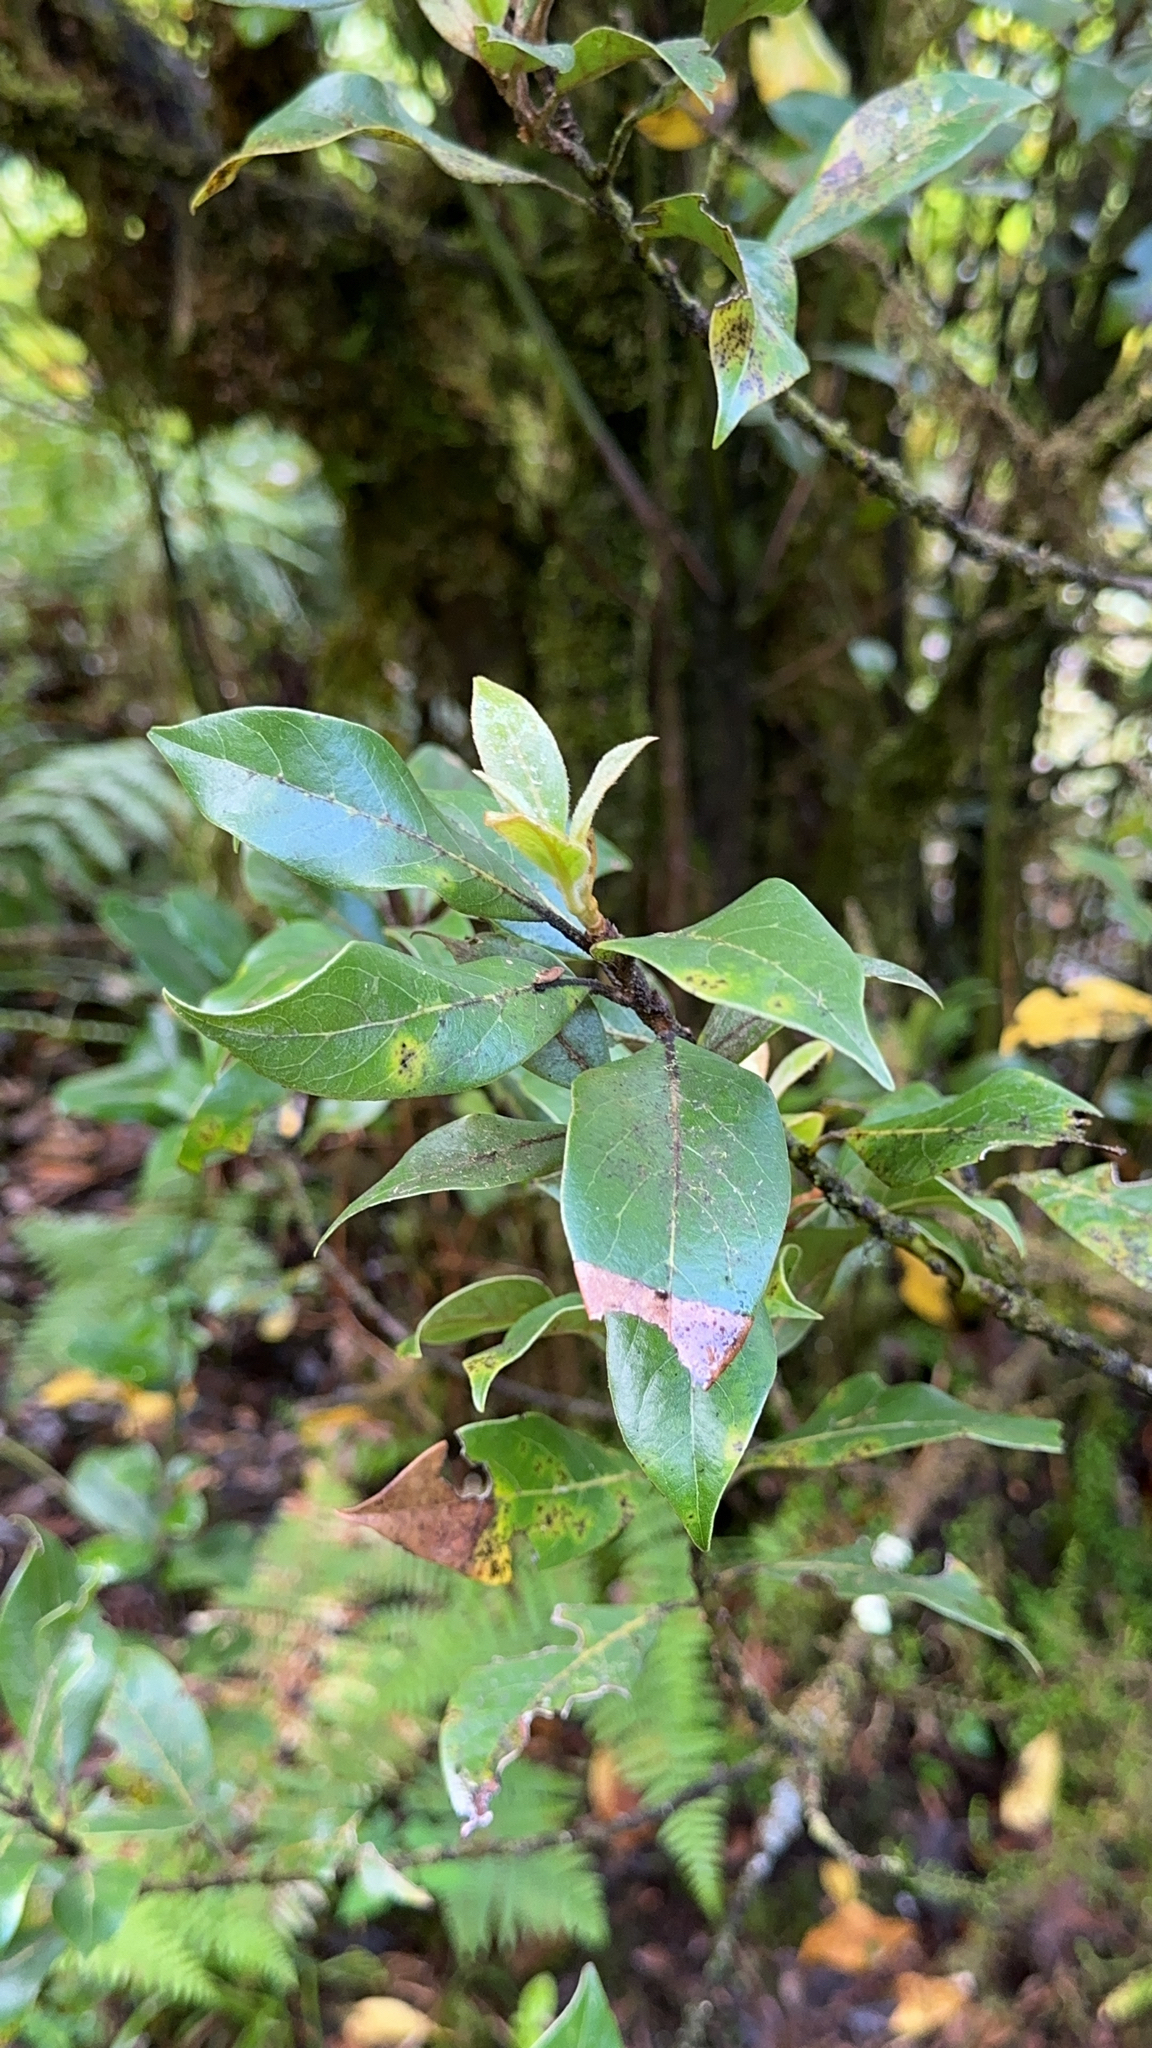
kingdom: Plantae
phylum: Tracheophyta
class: Magnoliopsida
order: Laurales
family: Lauraceae
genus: Laurus
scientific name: Laurus azorica
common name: Macaronesian laurel
